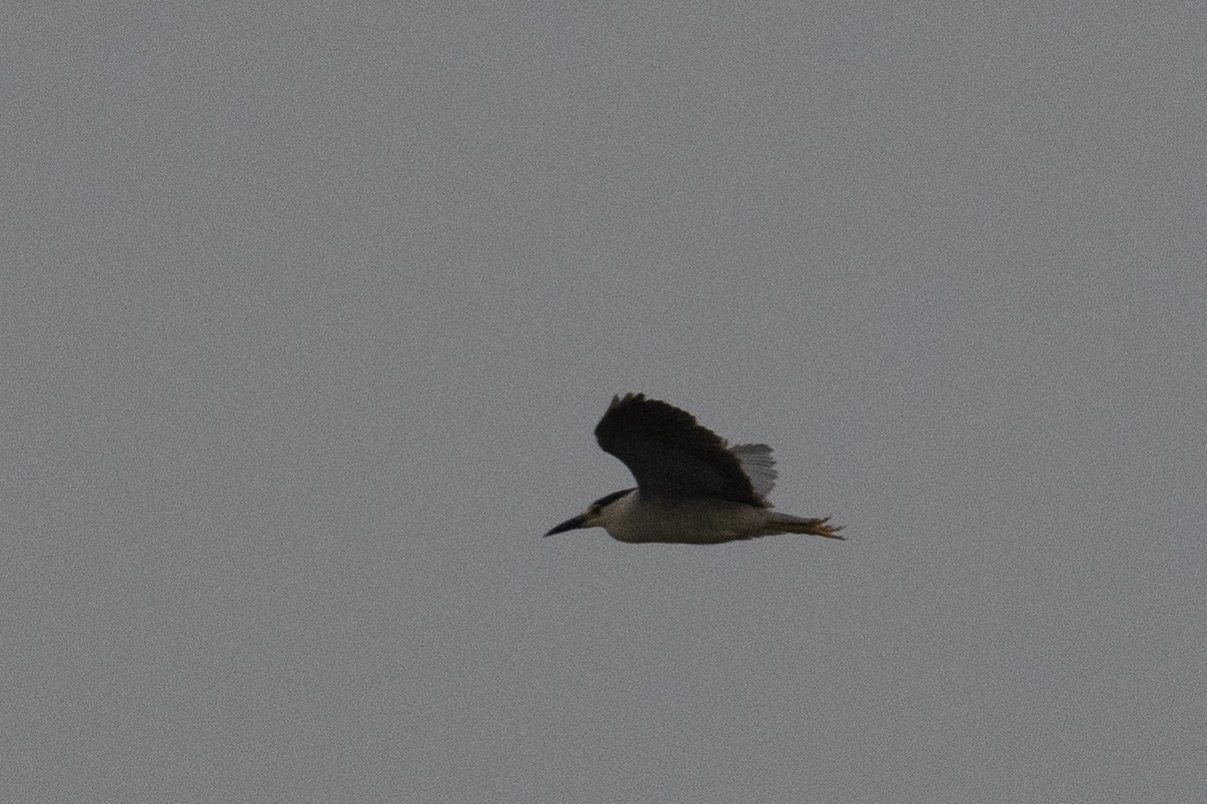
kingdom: Animalia
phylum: Chordata
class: Aves
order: Pelecaniformes
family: Ardeidae
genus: Nycticorax
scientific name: Nycticorax nycticorax
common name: Black-crowned night heron
